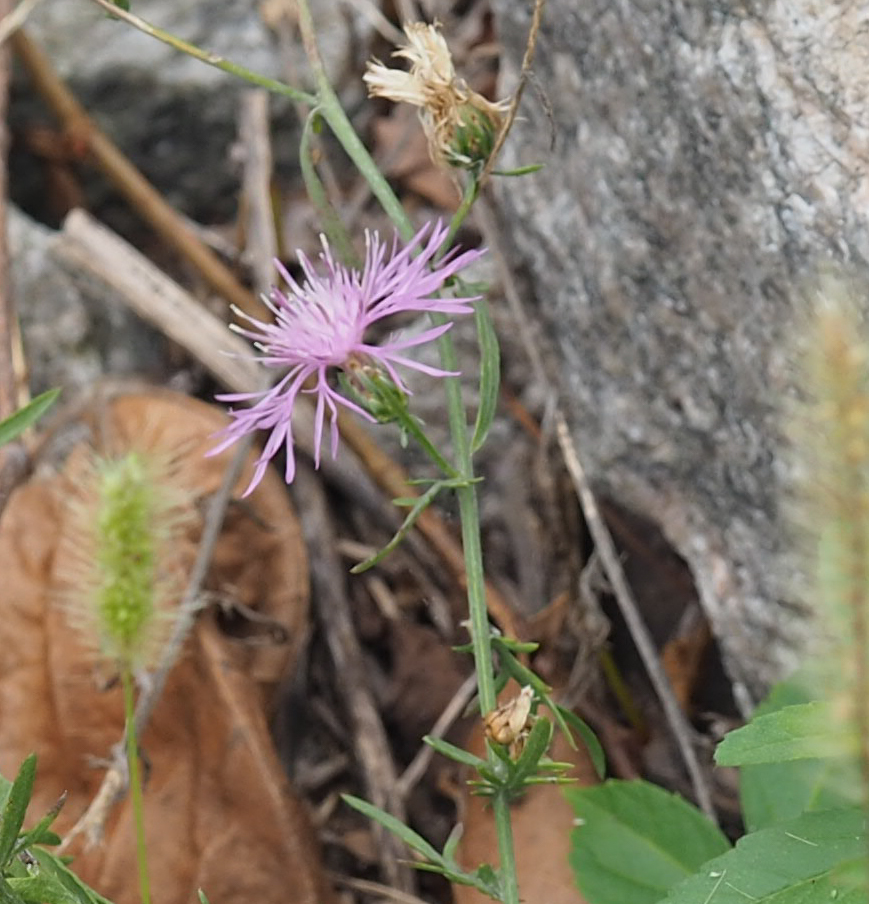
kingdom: Plantae
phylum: Tracheophyta
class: Magnoliopsida
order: Asterales
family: Asteraceae
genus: Centaurea
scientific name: Centaurea stoebe
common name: Spotted knapweed
